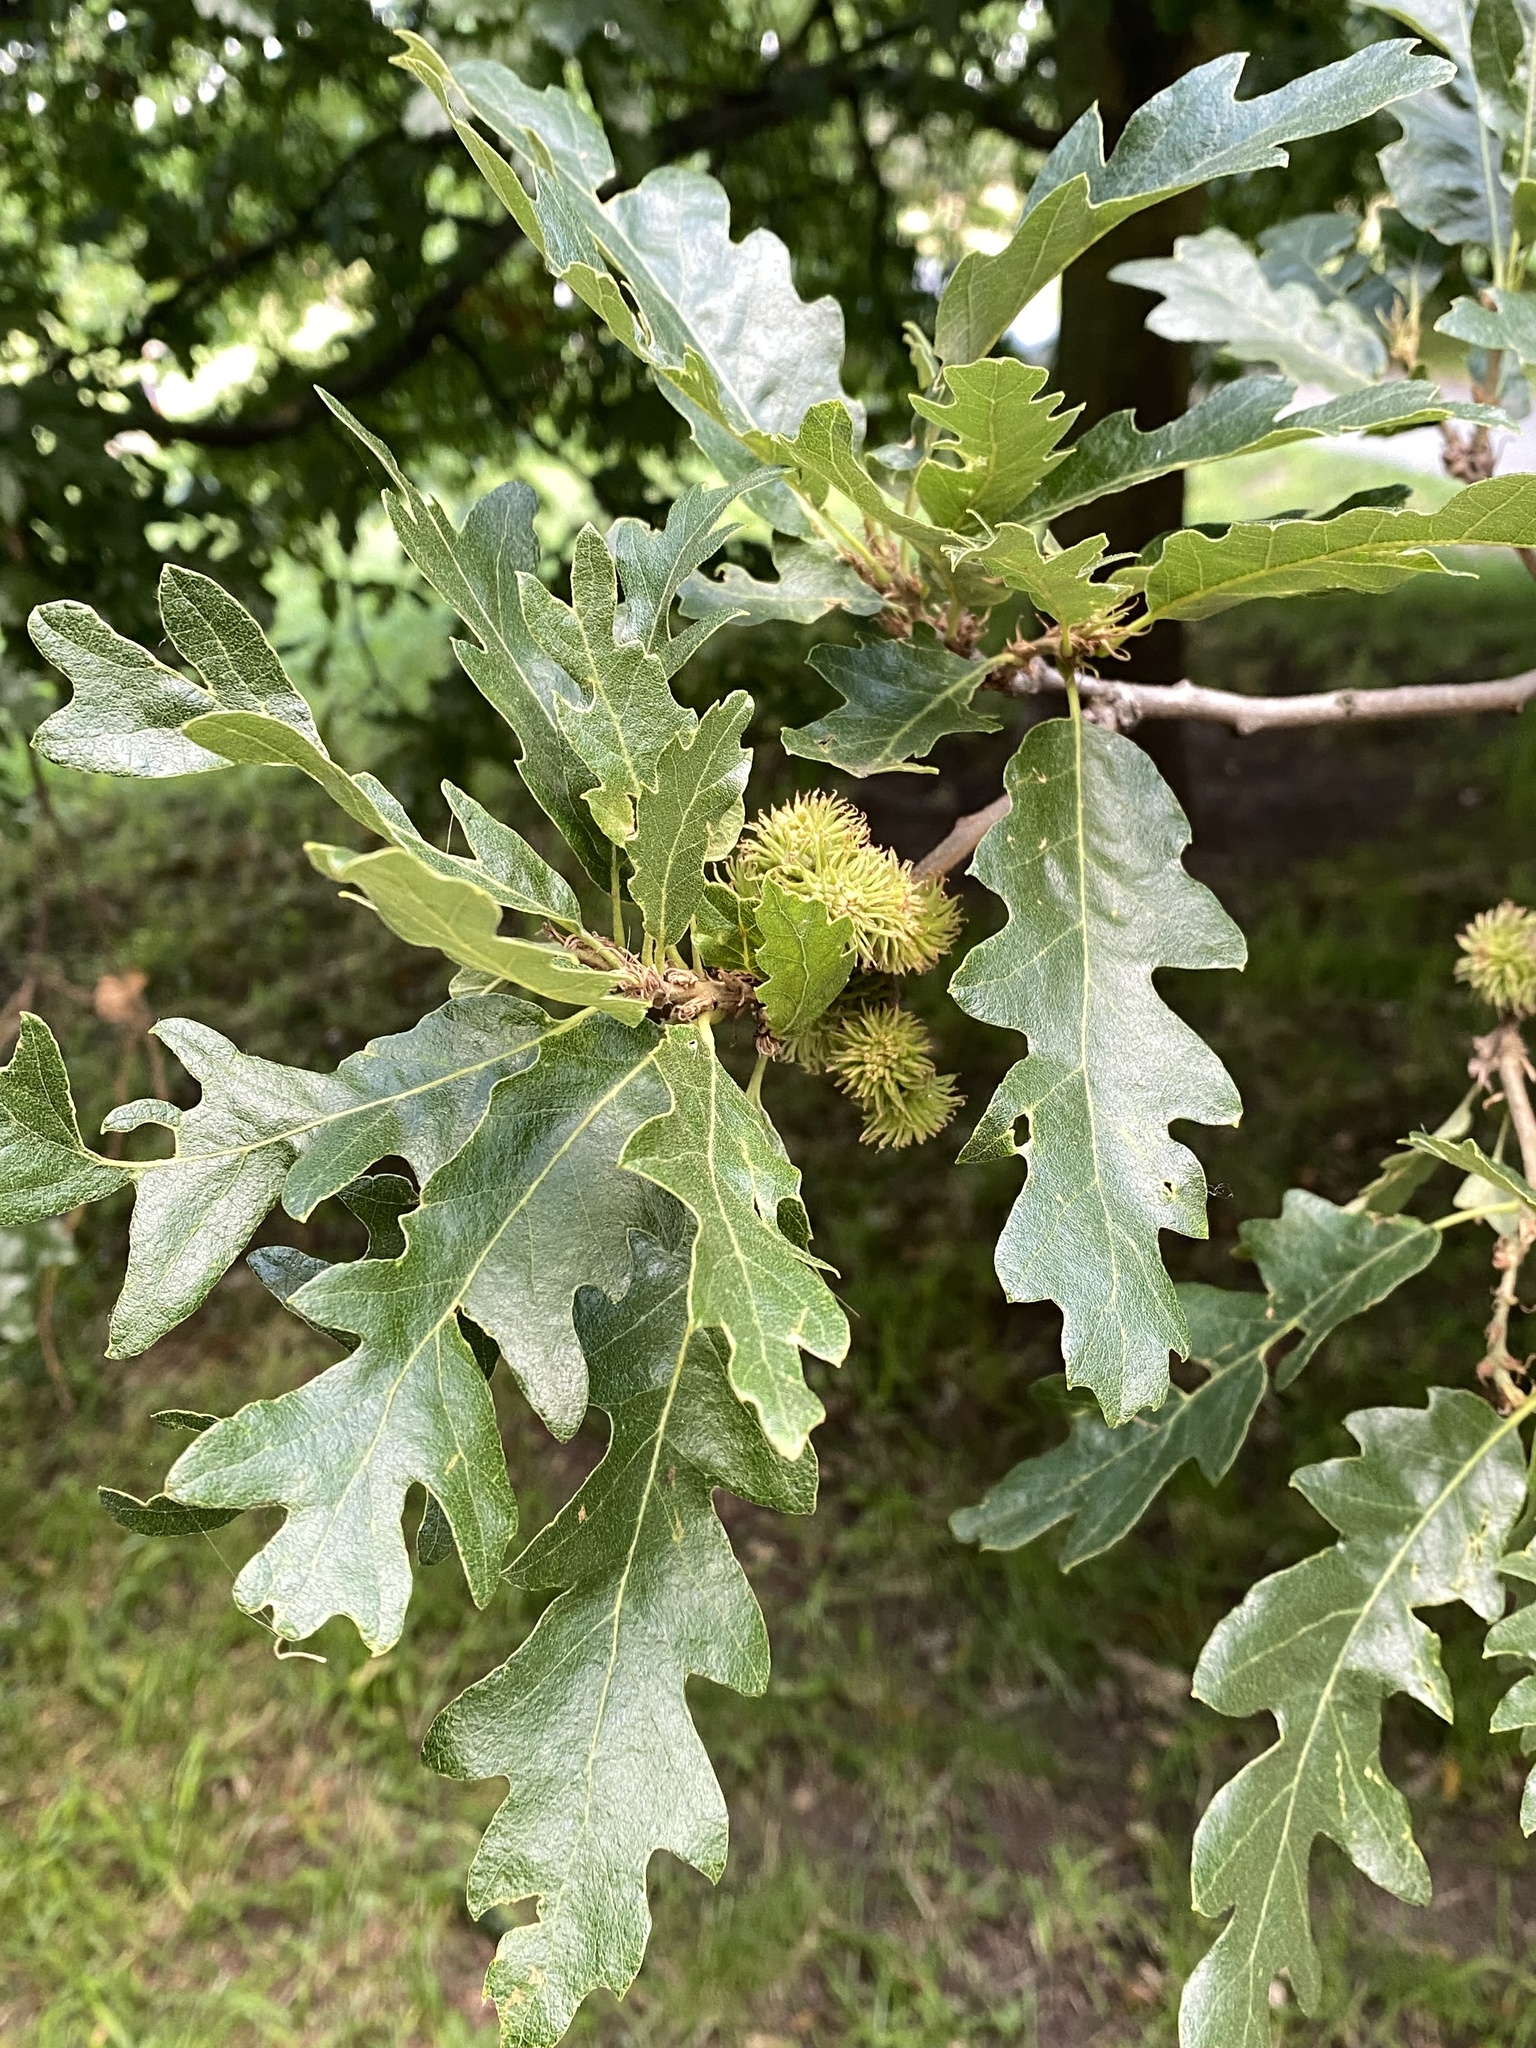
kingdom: Plantae
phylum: Tracheophyta
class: Magnoliopsida
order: Fagales
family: Fagaceae
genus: Quercus
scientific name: Quercus cerris
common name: Turkey oak
